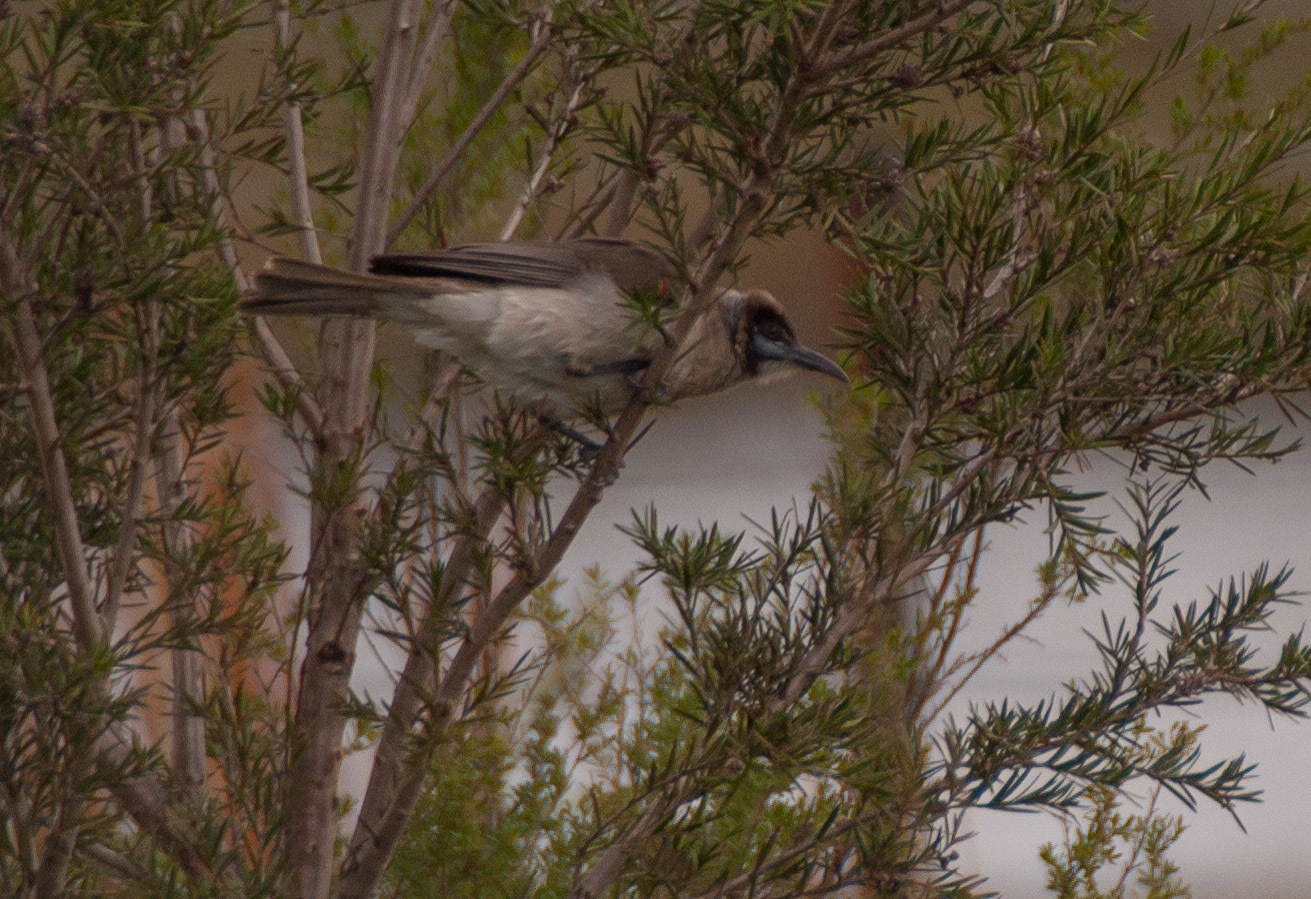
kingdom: Animalia
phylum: Chordata
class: Aves
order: Passeriformes
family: Meliphagidae
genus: Philemon
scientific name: Philemon citreogularis
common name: Little friarbird
